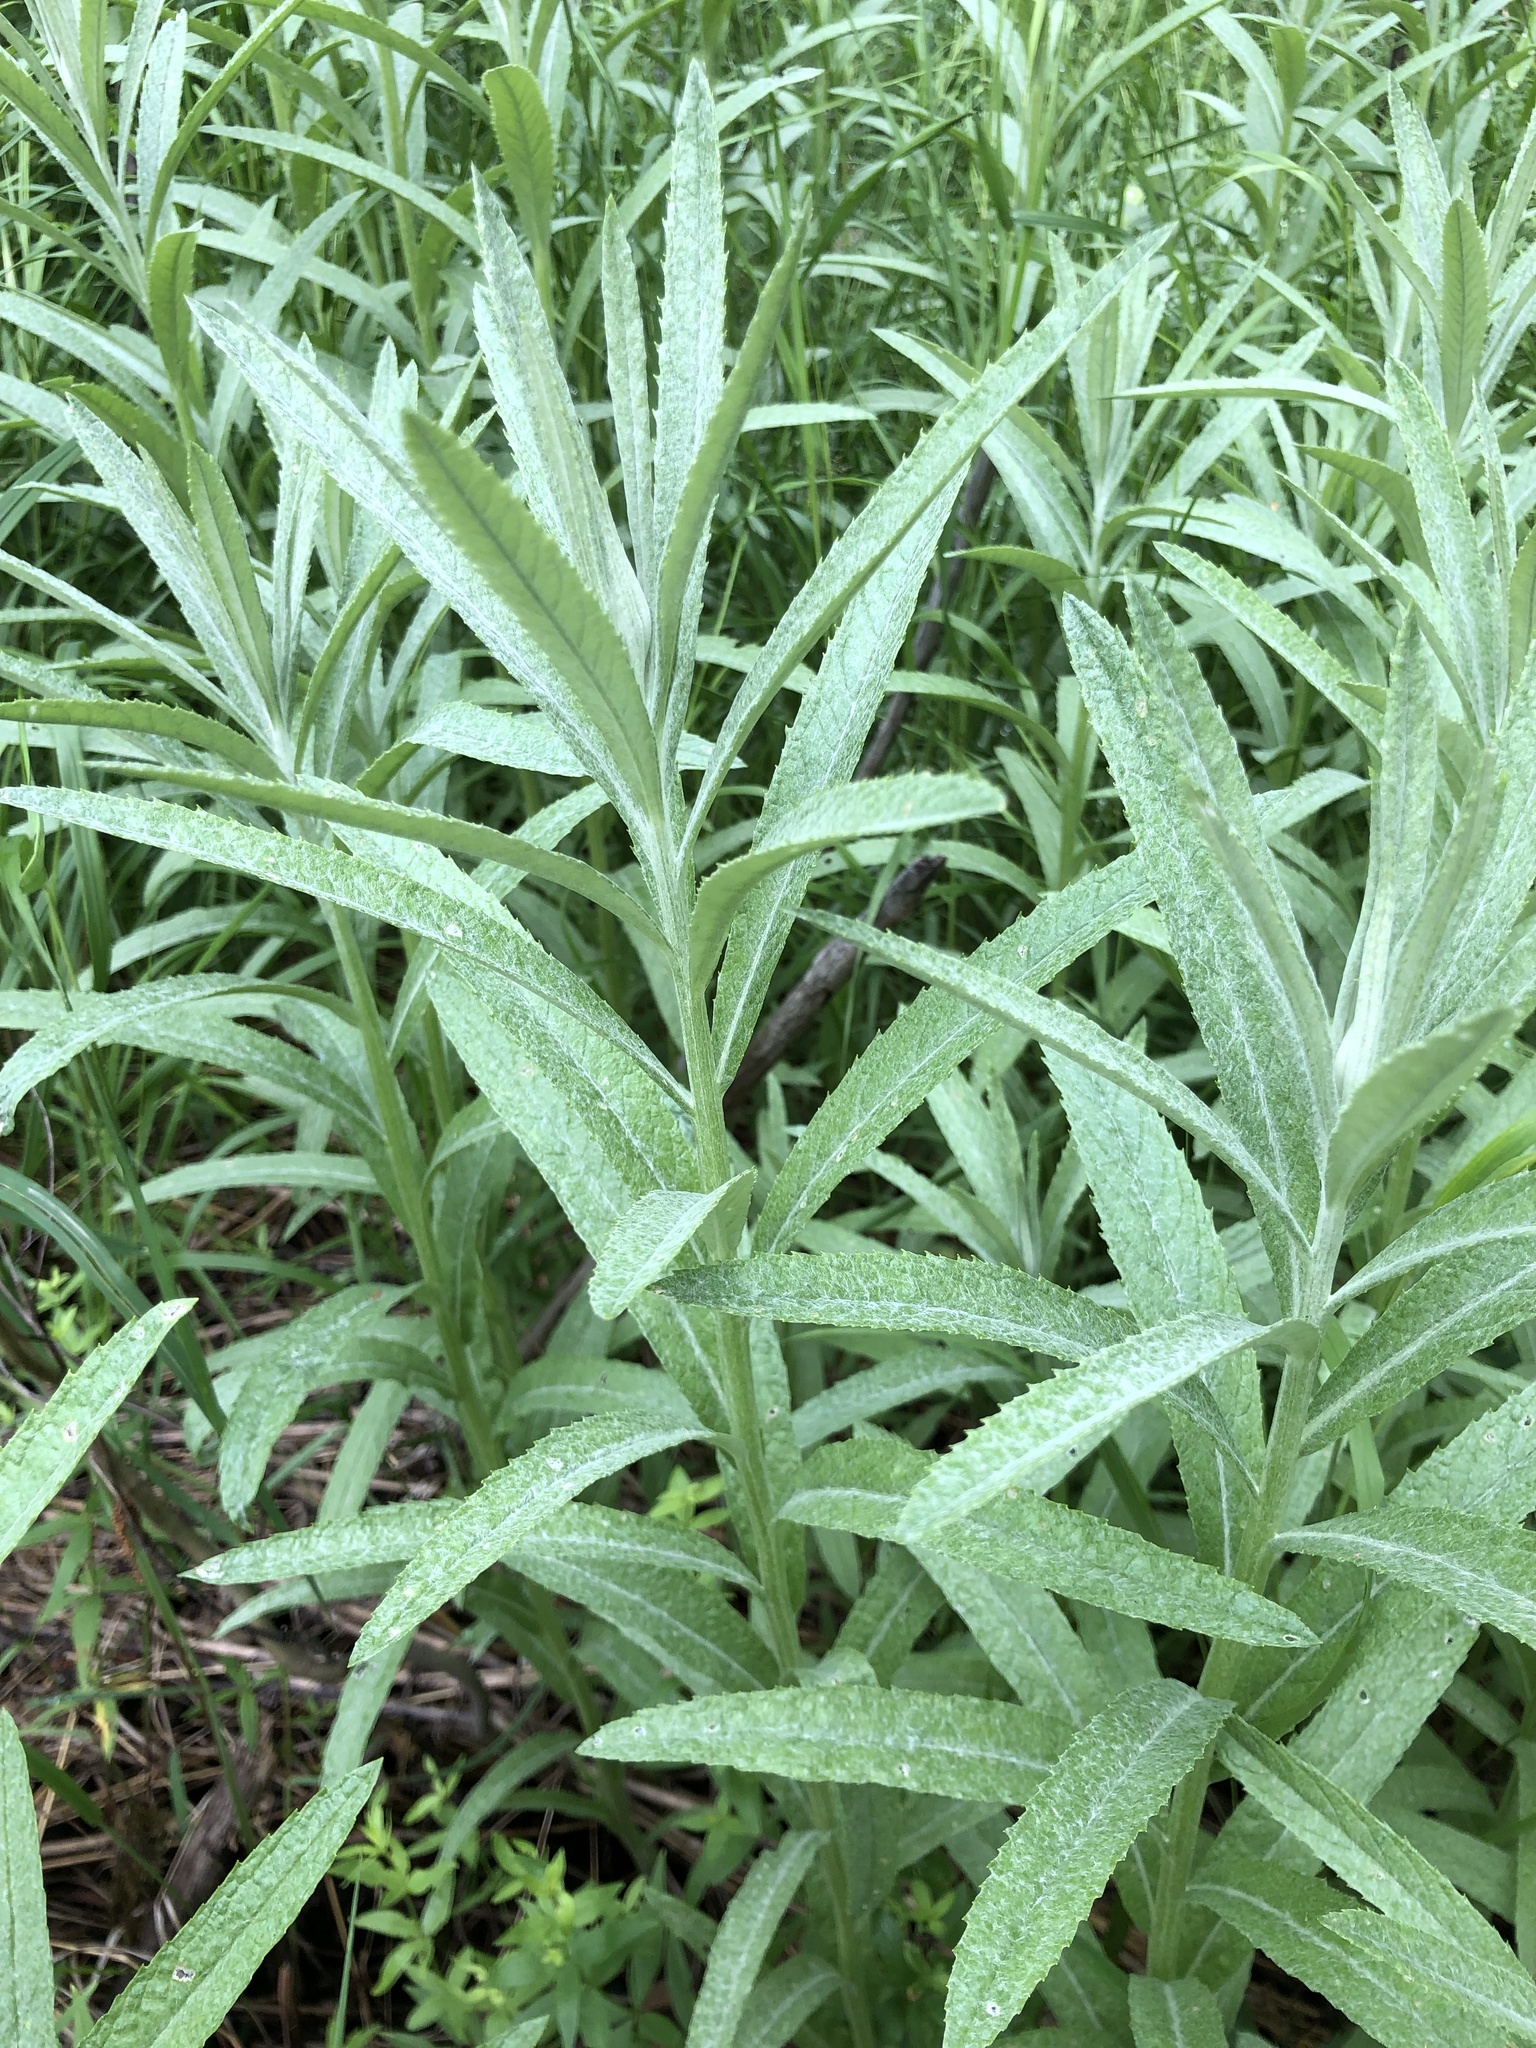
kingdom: Plantae
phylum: Tracheophyta
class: Magnoliopsida
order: Asterales
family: Asteraceae
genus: Jacobaea
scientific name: Jacobaea paludosa
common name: Fen ragwort
